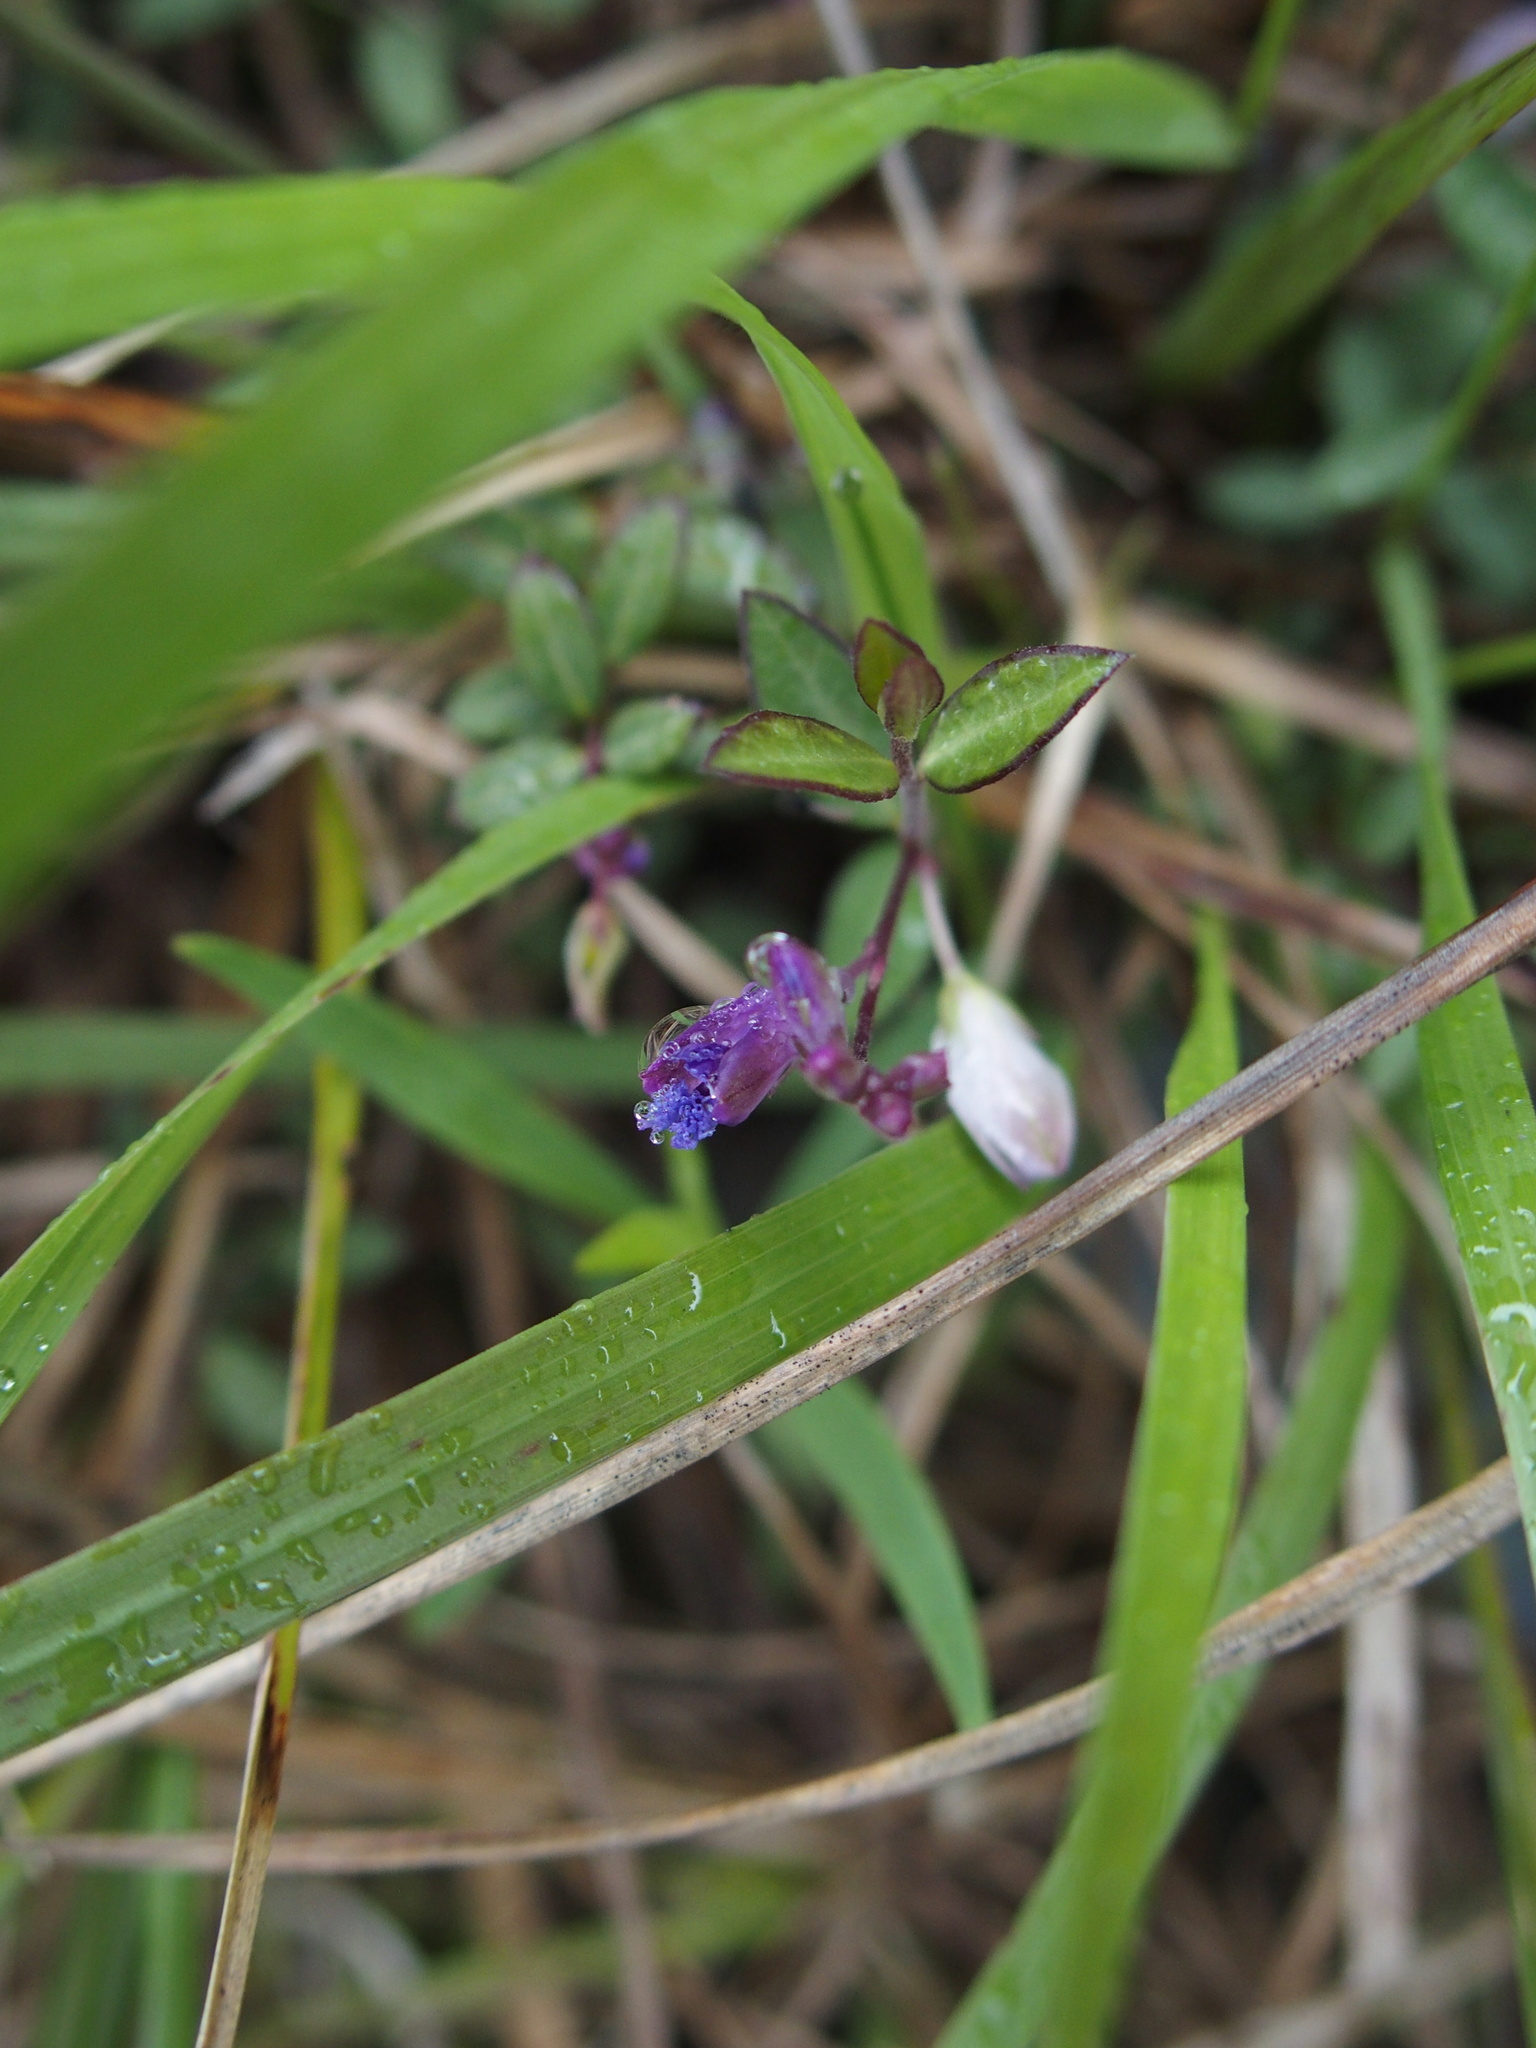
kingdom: Plantae
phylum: Tracheophyta
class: Magnoliopsida
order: Fabales
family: Polygalaceae
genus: Polygala
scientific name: Polygala japonica
